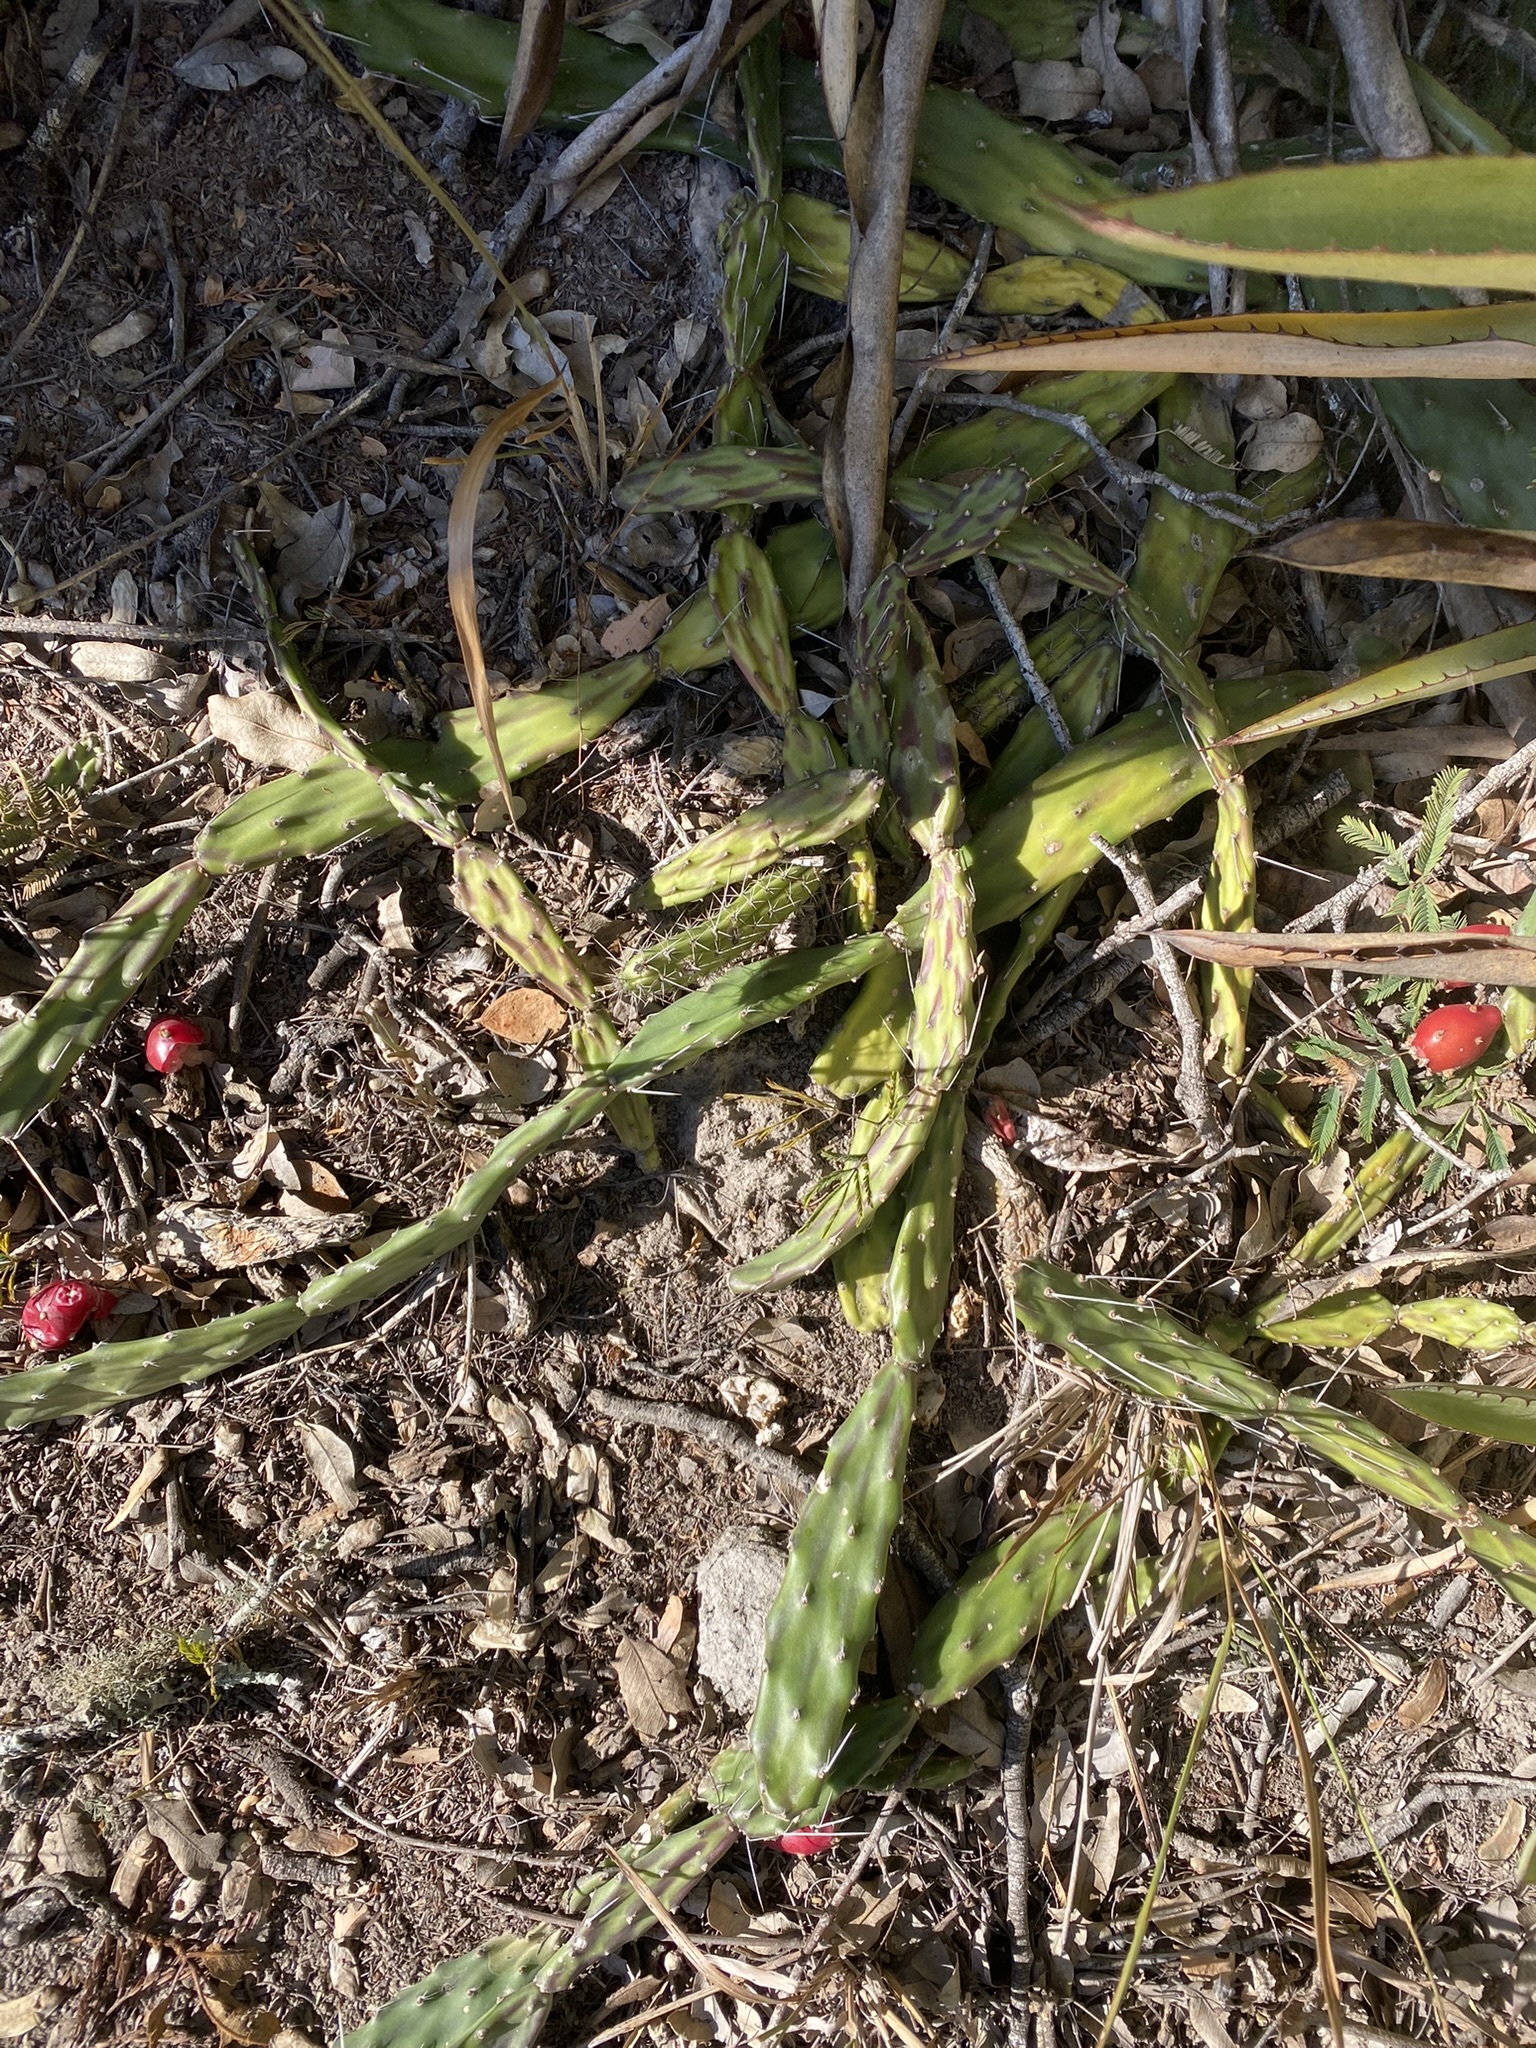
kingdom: Plantae
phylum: Tracheophyta
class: Magnoliopsida
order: Caryophyllales
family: Cactaceae
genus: Opuntia
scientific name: Opuntia retrorsa
